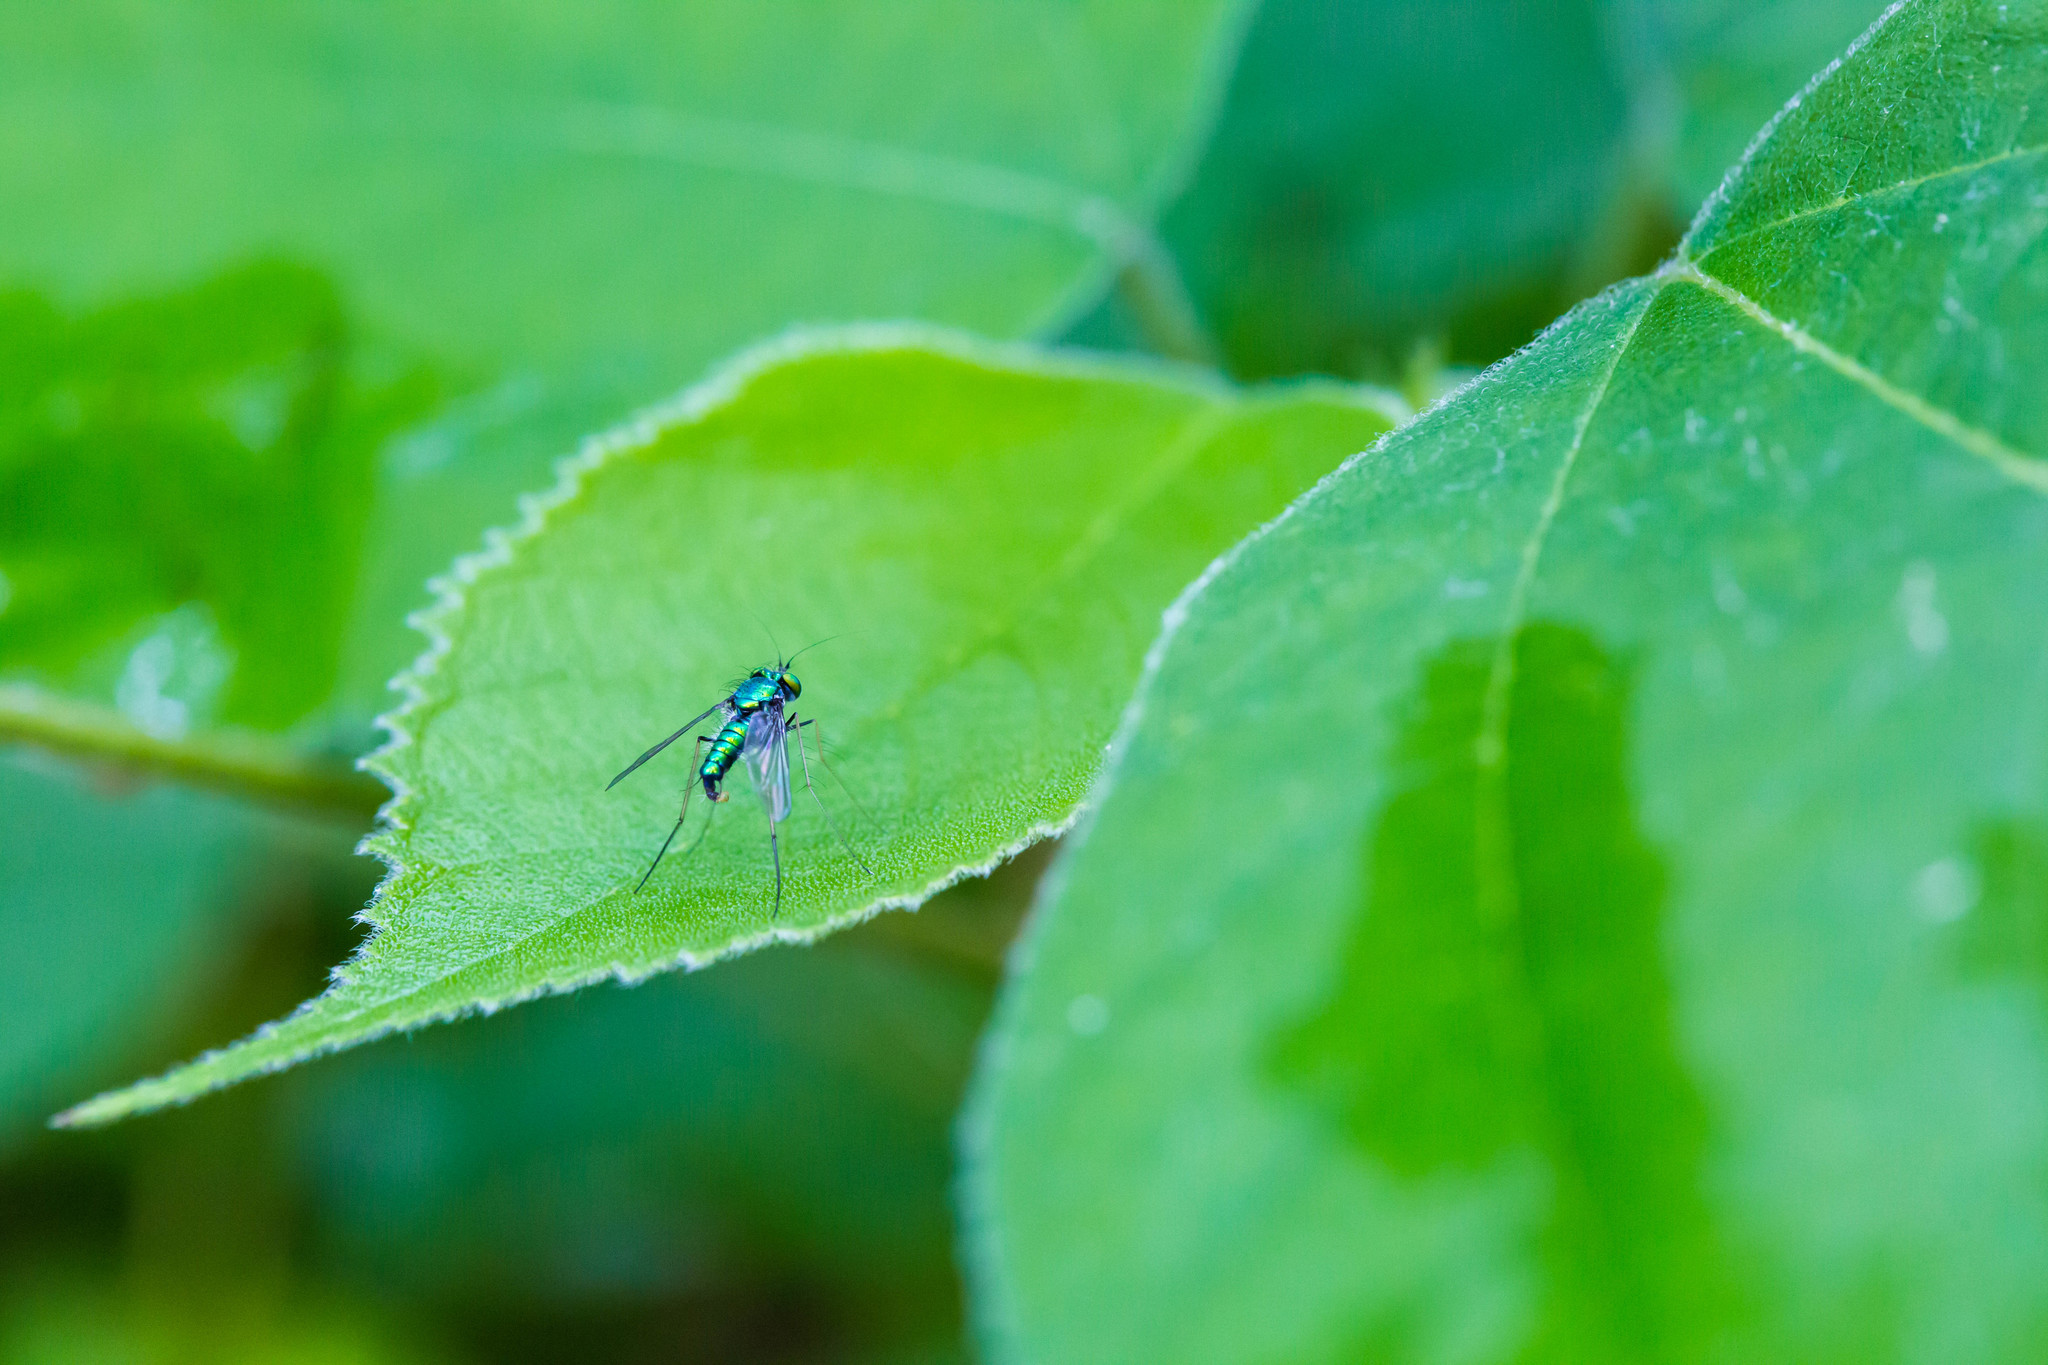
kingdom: Animalia
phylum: Arthropoda
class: Insecta
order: Diptera
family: Dolichopodidae
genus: Condylostylus
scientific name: Condylostylus comatus
